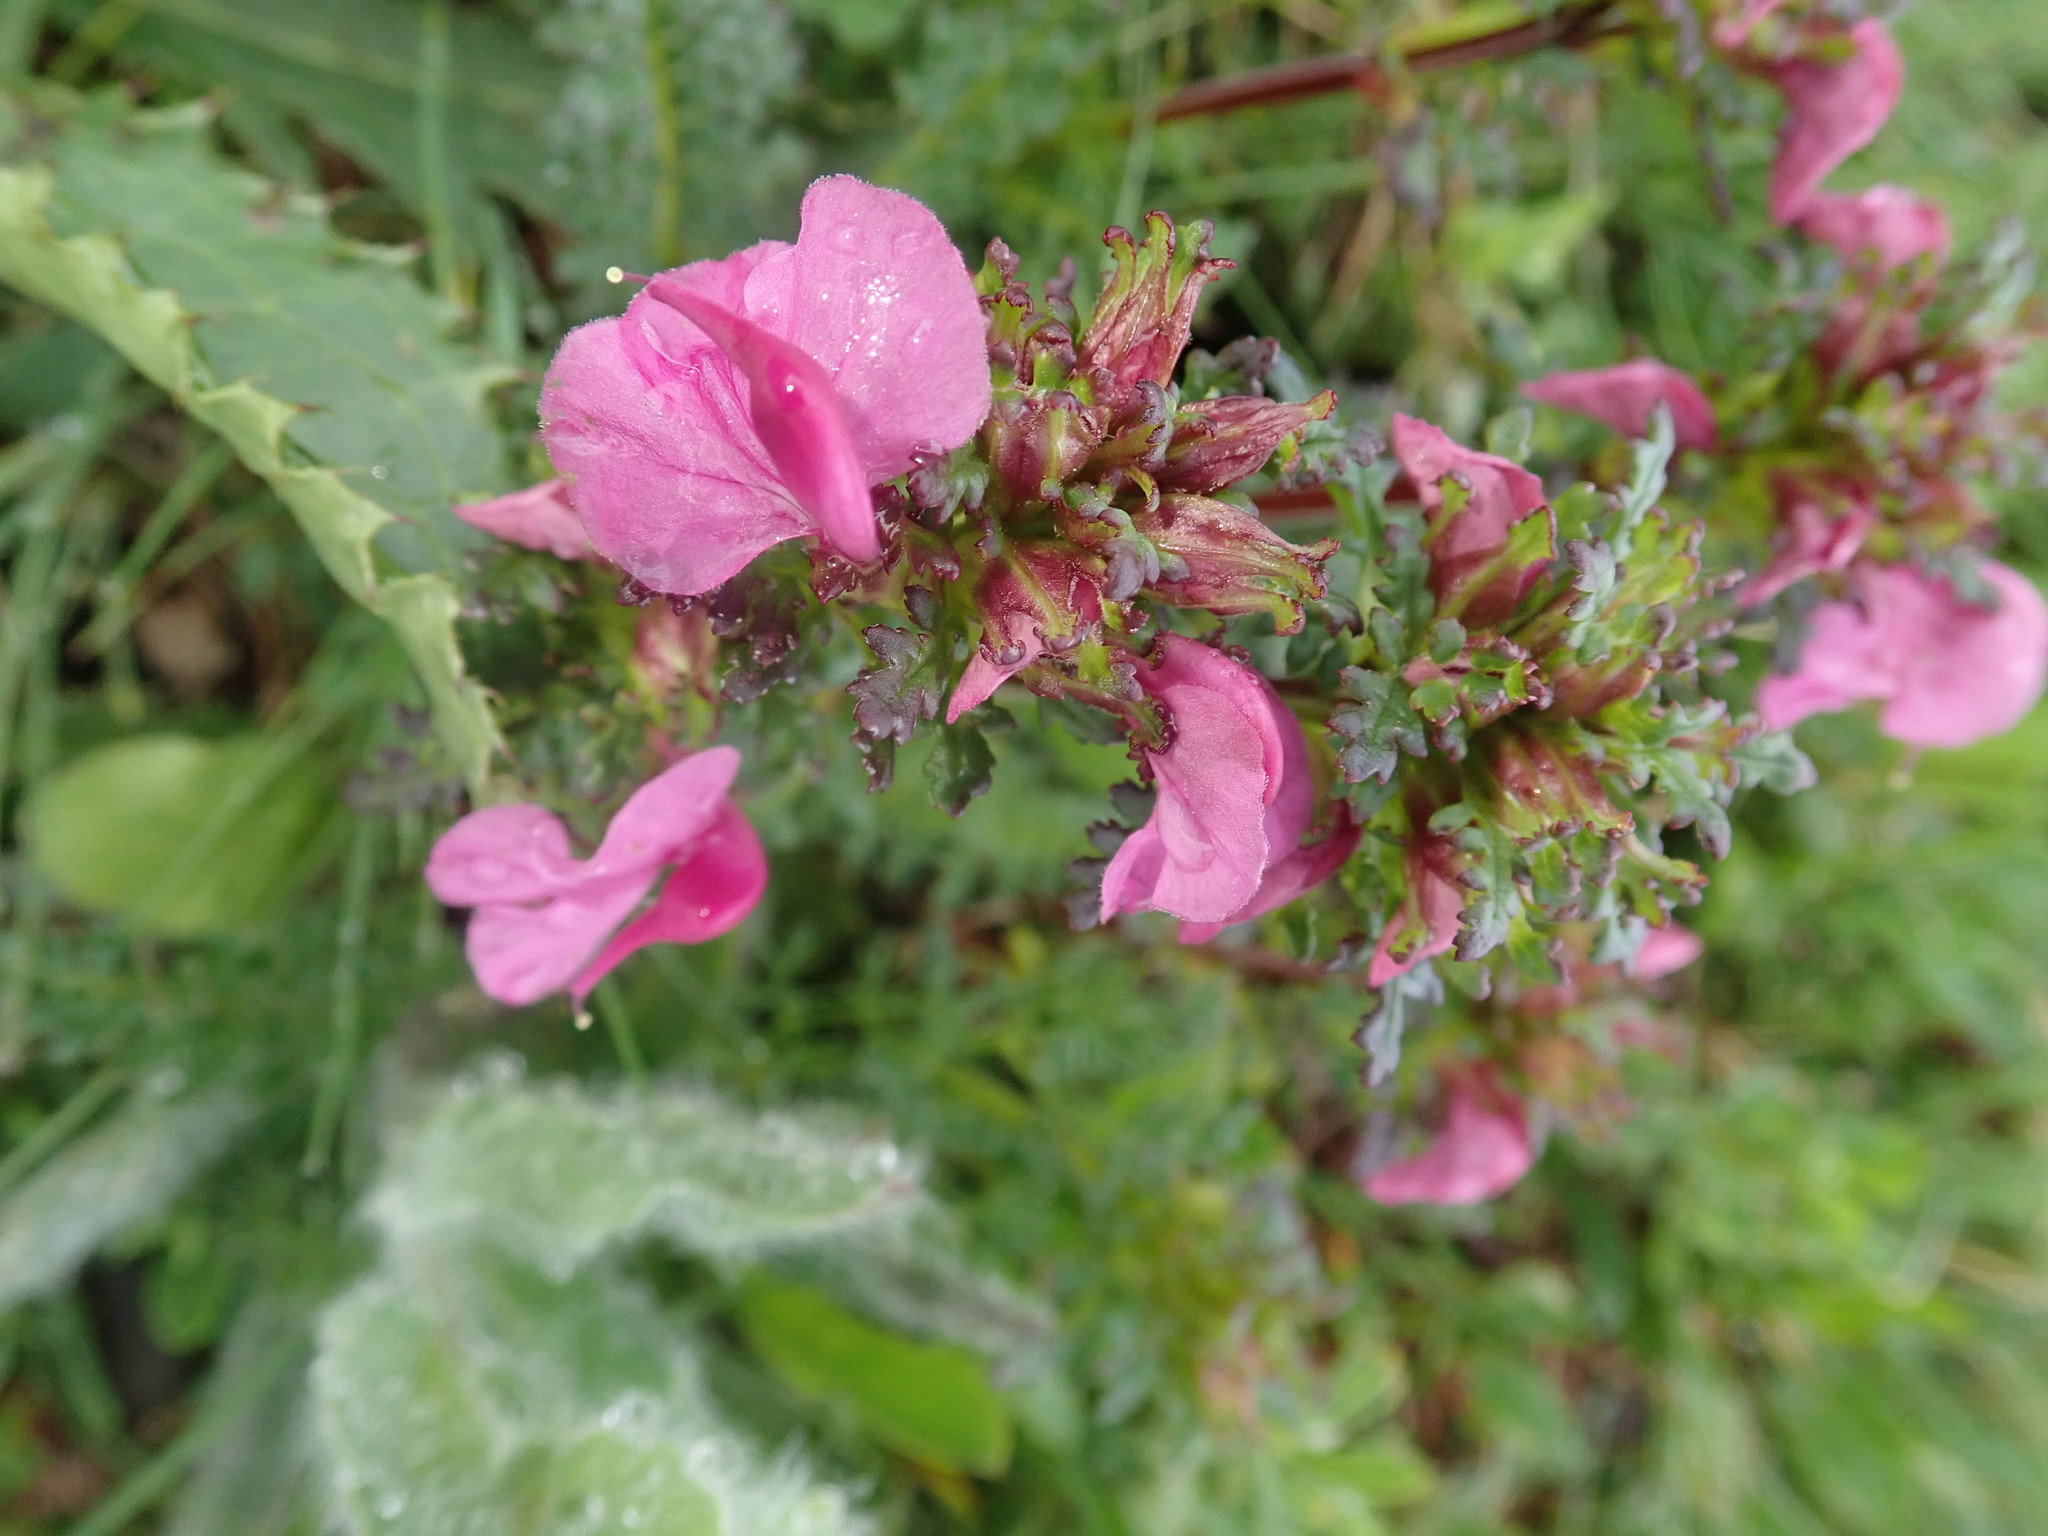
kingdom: Plantae
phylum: Tracheophyta
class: Magnoliopsida
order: Lamiales
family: Orobanchaceae
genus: Pedicularis
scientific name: Pedicularis rostratocapitata
